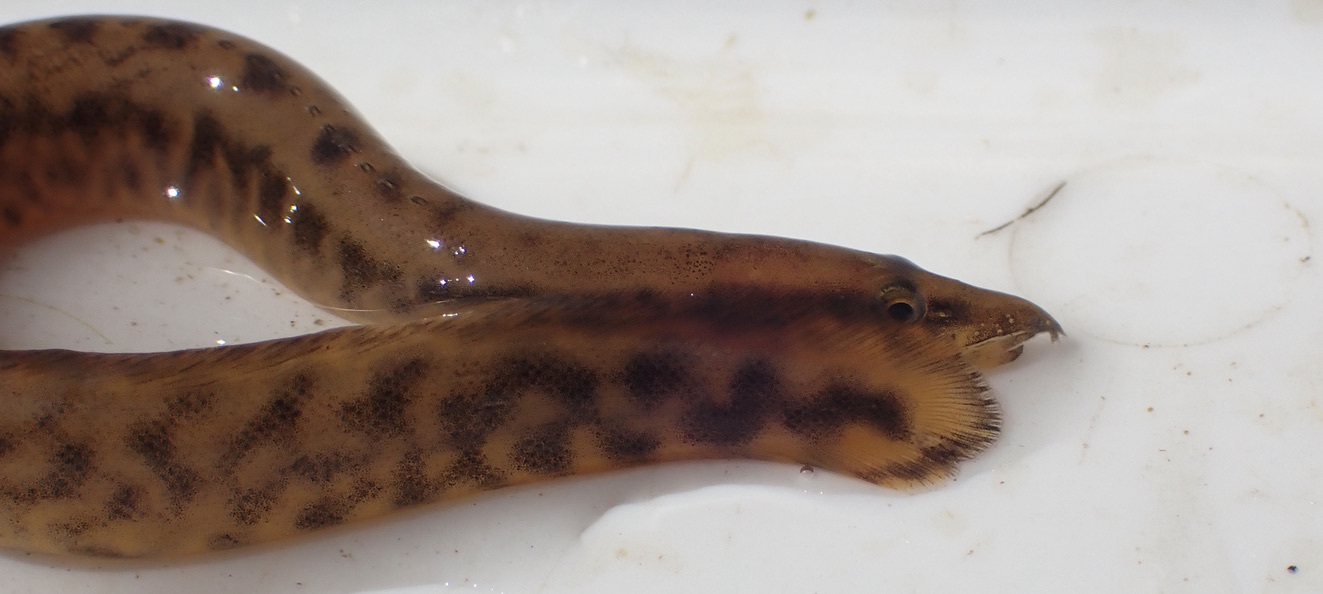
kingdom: Animalia
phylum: Chordata
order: Synbranchiformes
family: Mastacembelidae
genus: Mastacembelus
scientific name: Mastacembelus frenatus
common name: East african spiny eel
